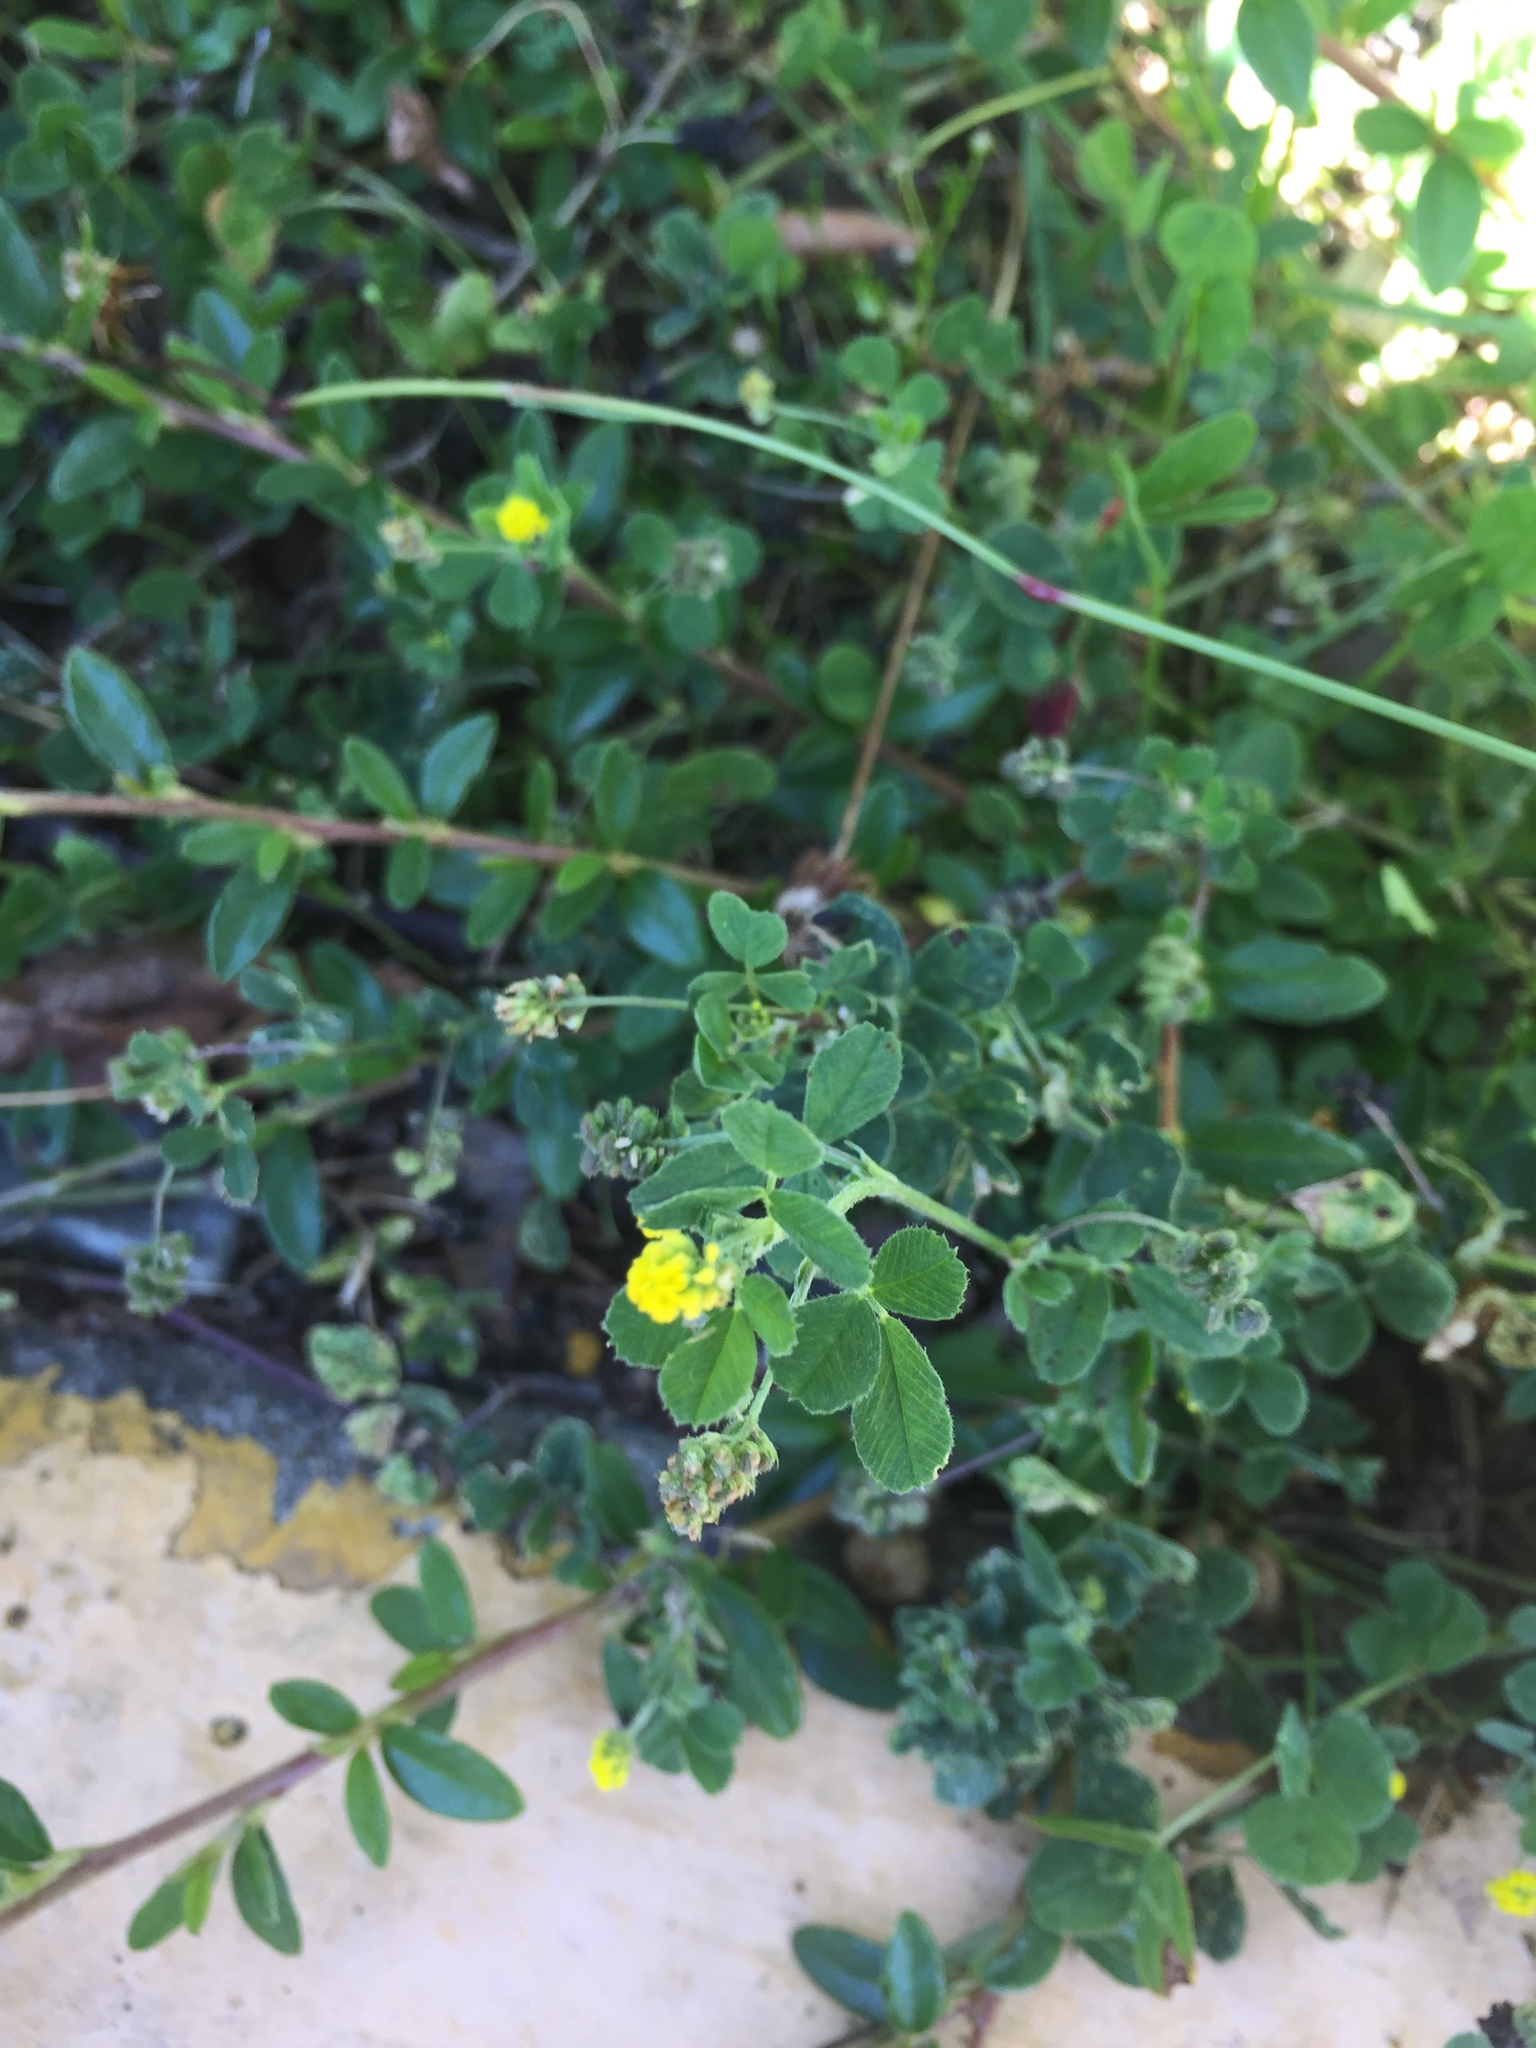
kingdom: Plantae
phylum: Tracheophyta
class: Magnoliopsida
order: Fabales
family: Fabaceae
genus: Medicago
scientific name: Medicago lupulina
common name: Black medick
